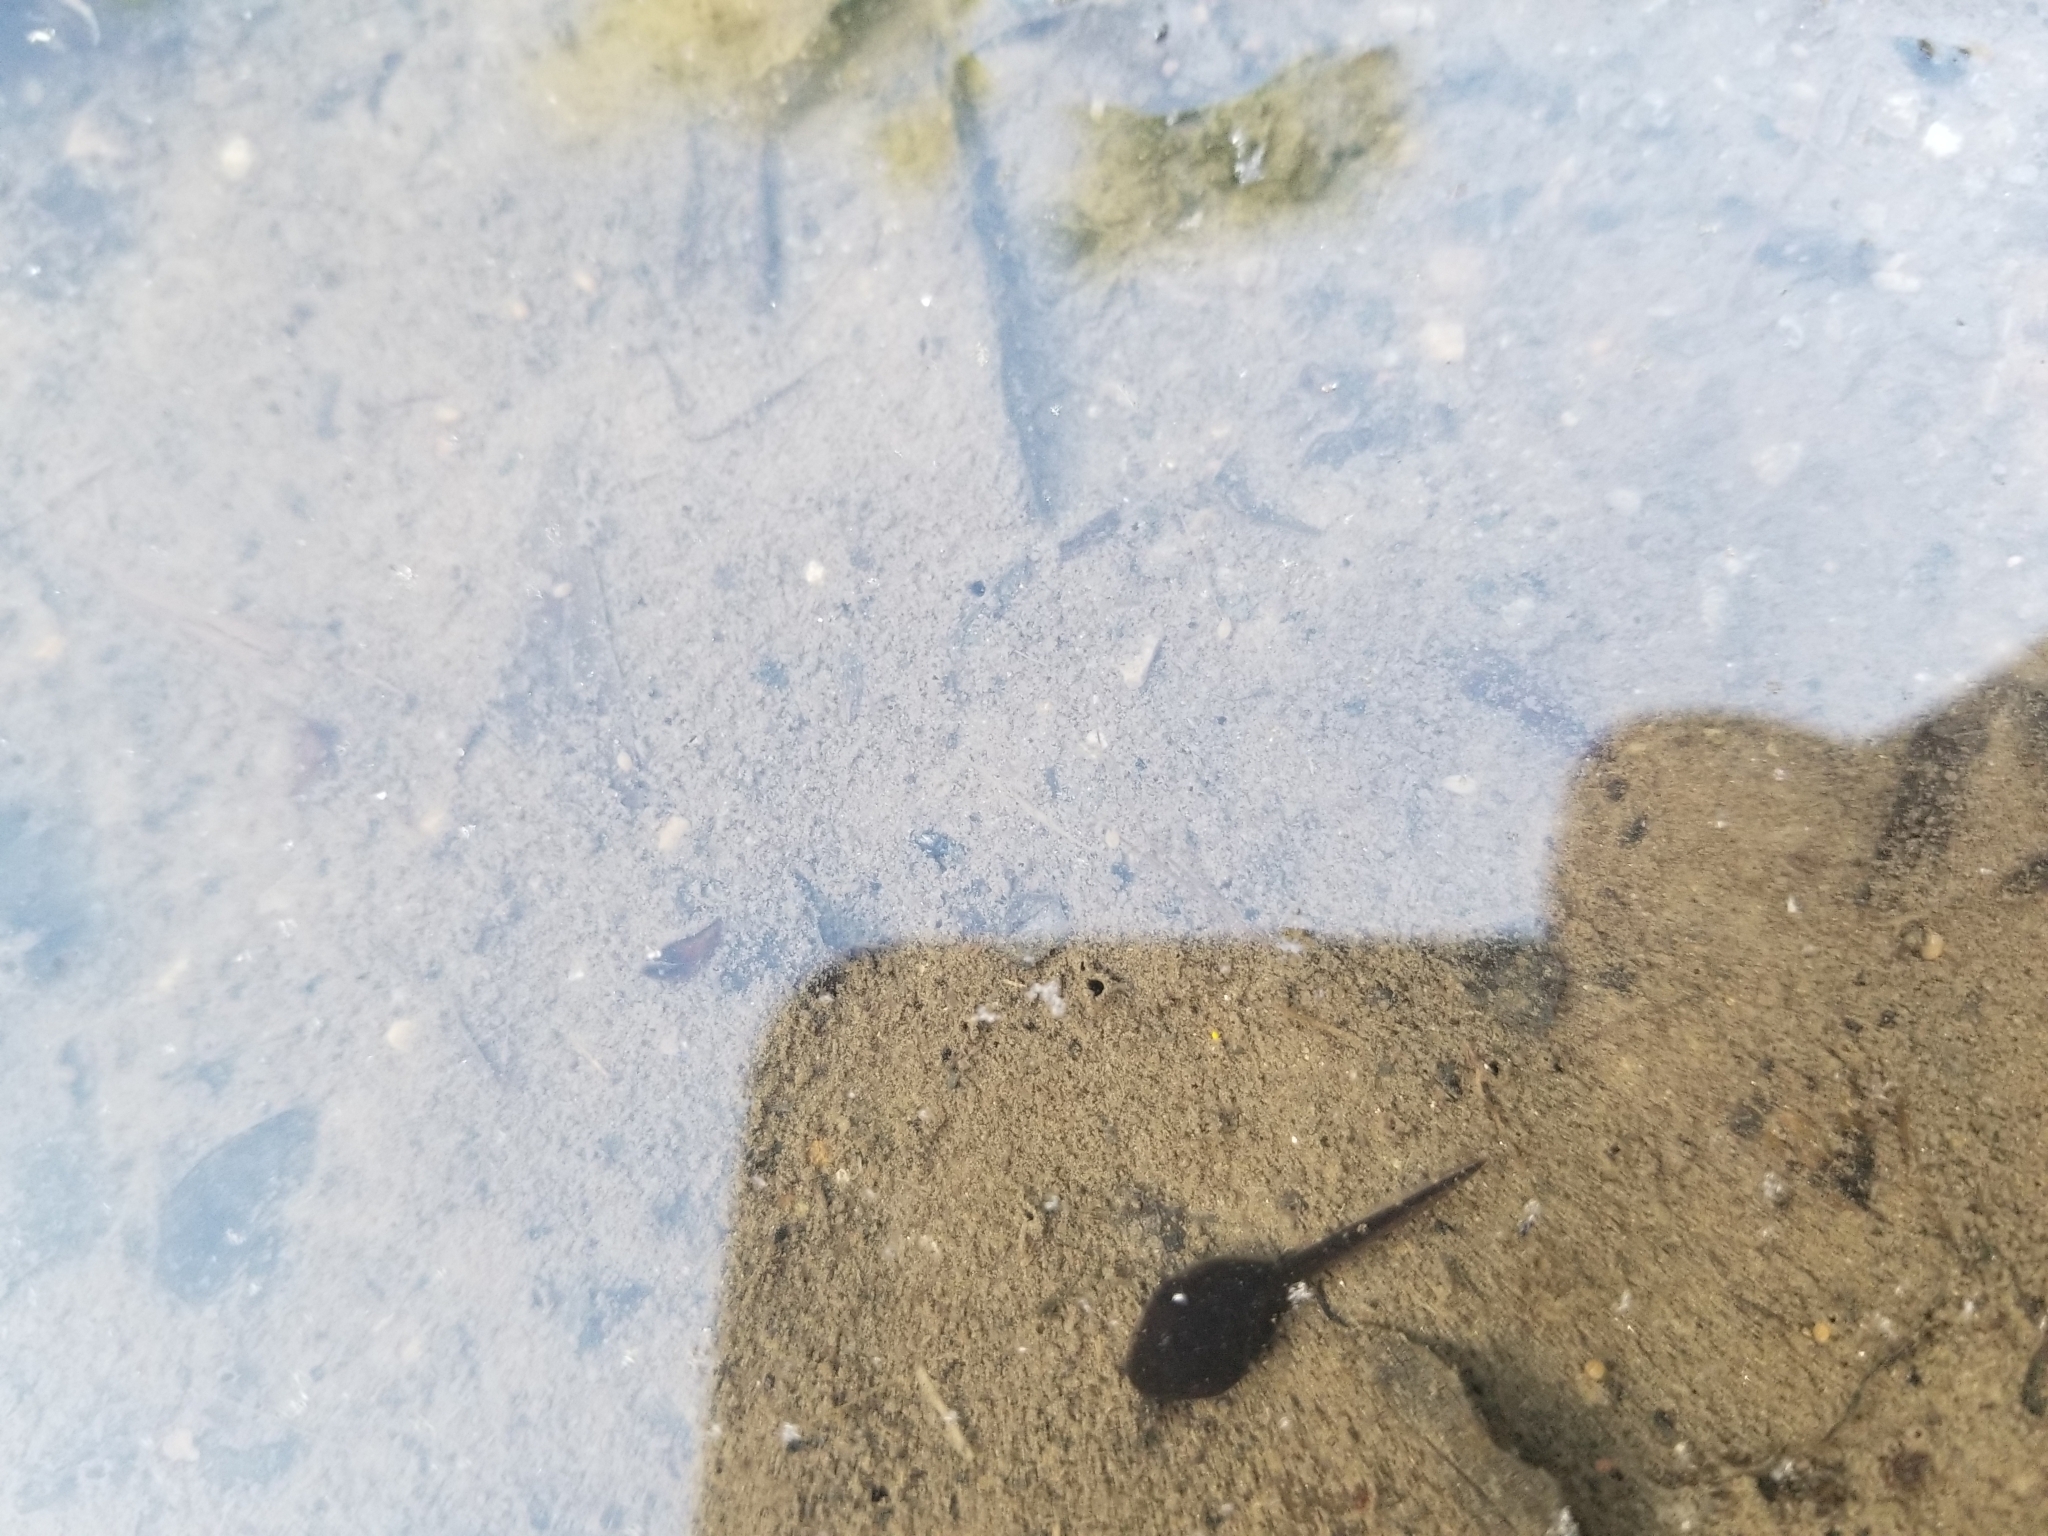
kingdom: Animalia
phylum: Chordata
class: Amphibia
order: Anura
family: Bufonidae
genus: Anaxyrus
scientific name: Anaxyrus americanus
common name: American toad
